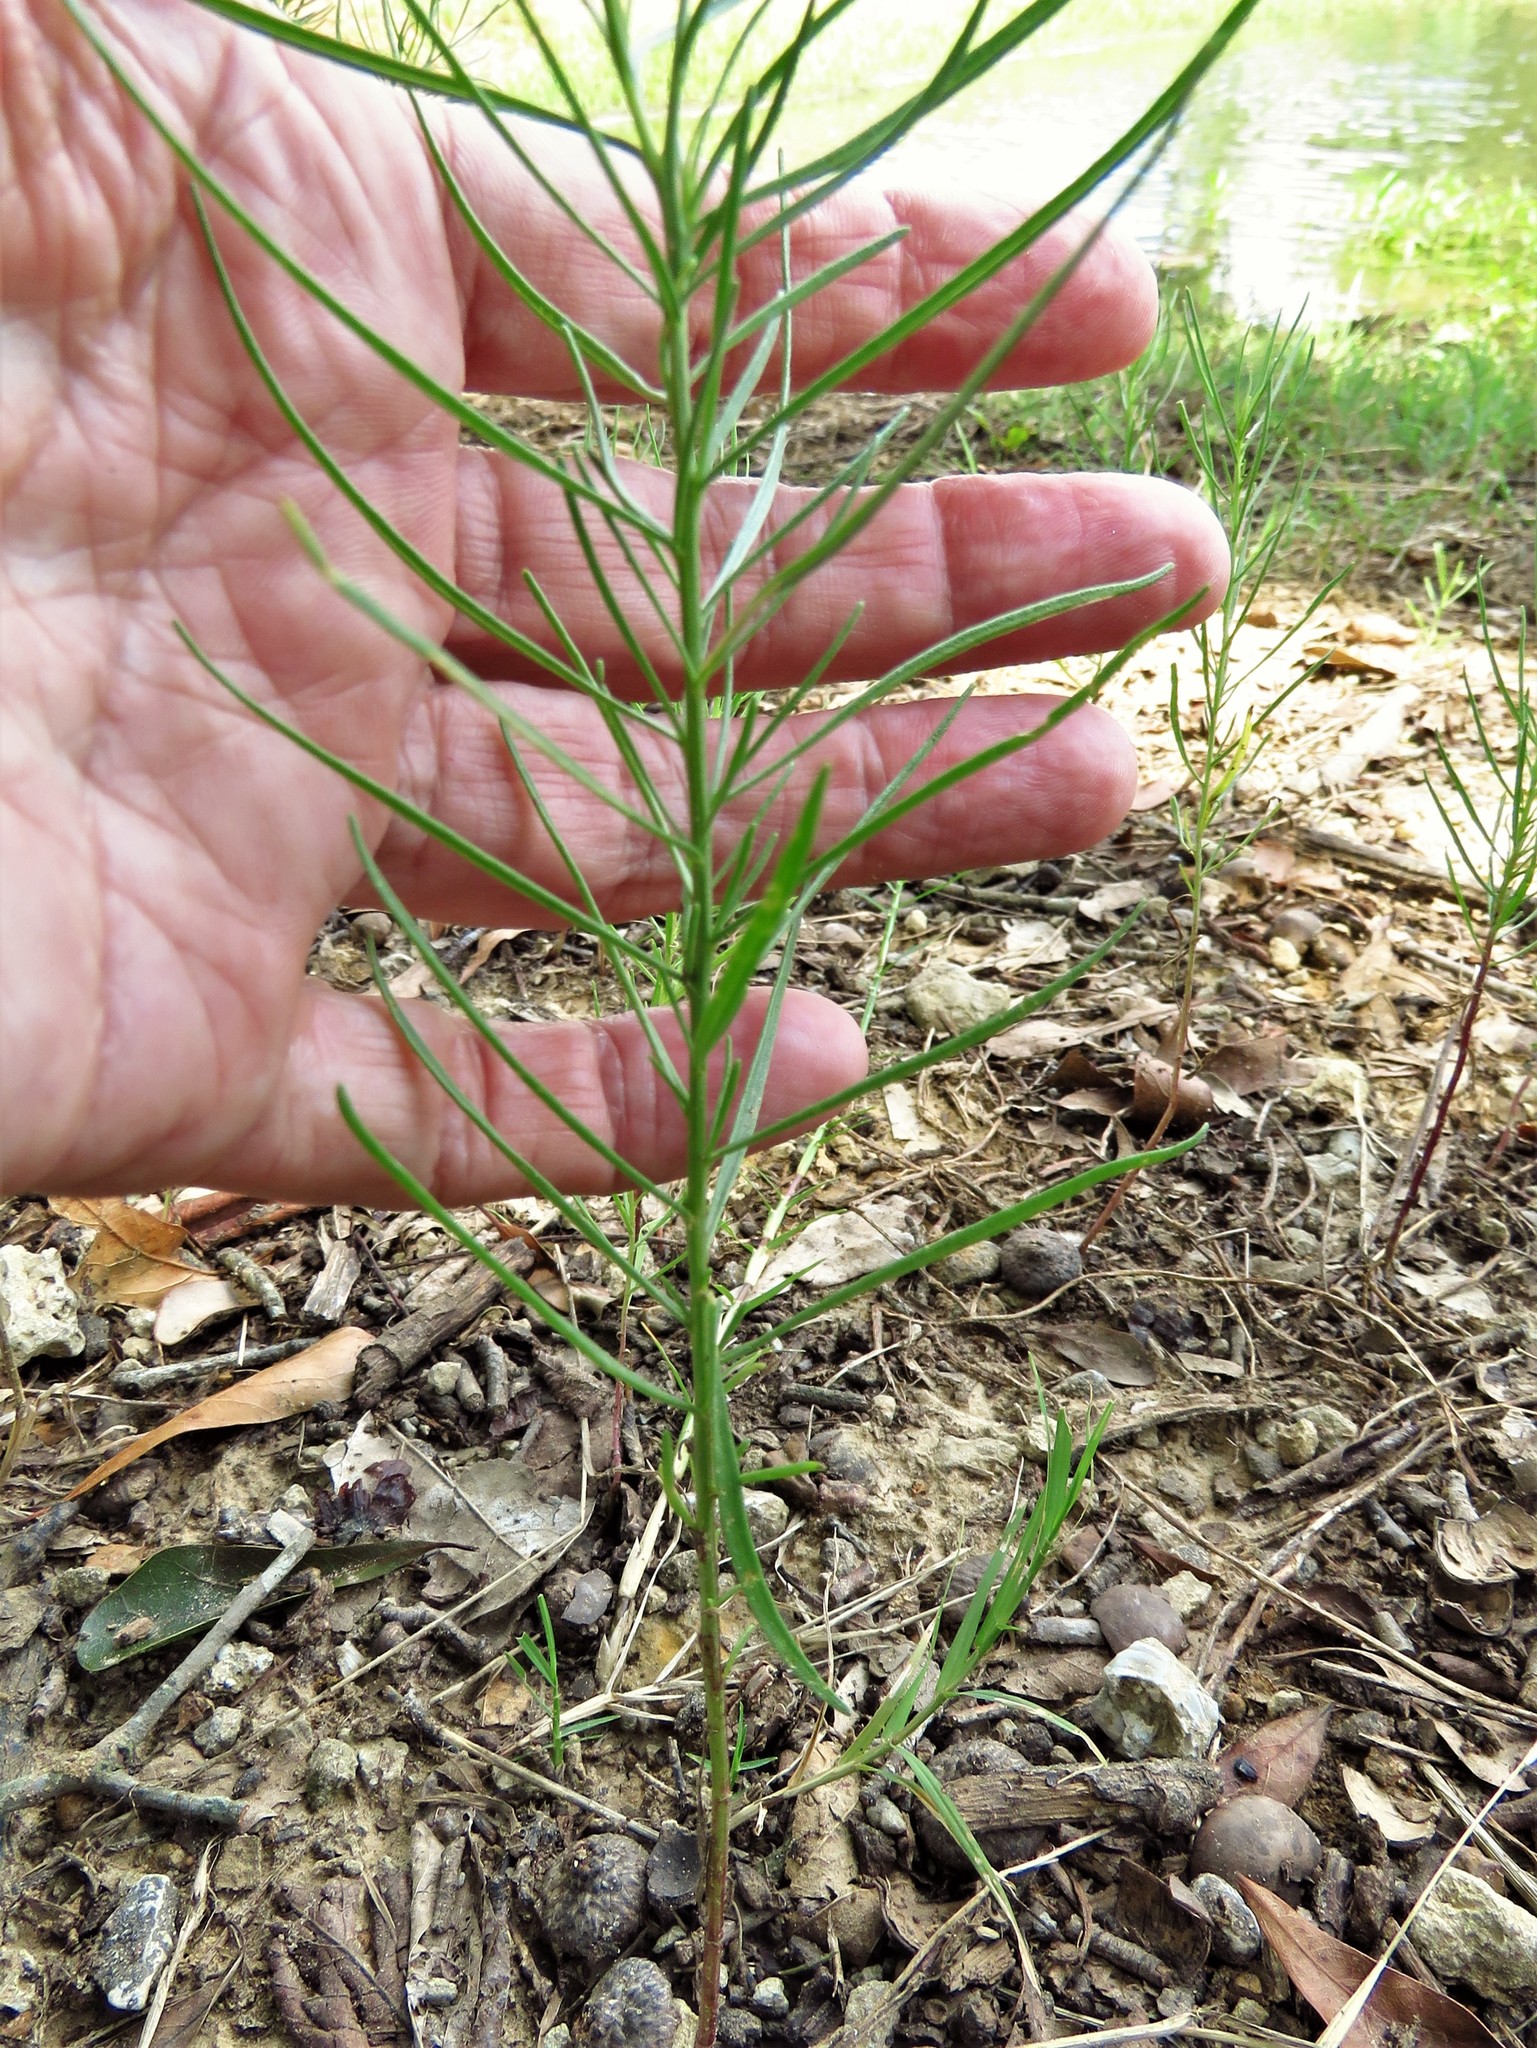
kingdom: Plantae
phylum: Tracheophyta
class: Magnoliopsida
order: Asterales
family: Asteraceae
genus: Helenium
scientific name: Helenium amarum
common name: Bitter sneezeweed
